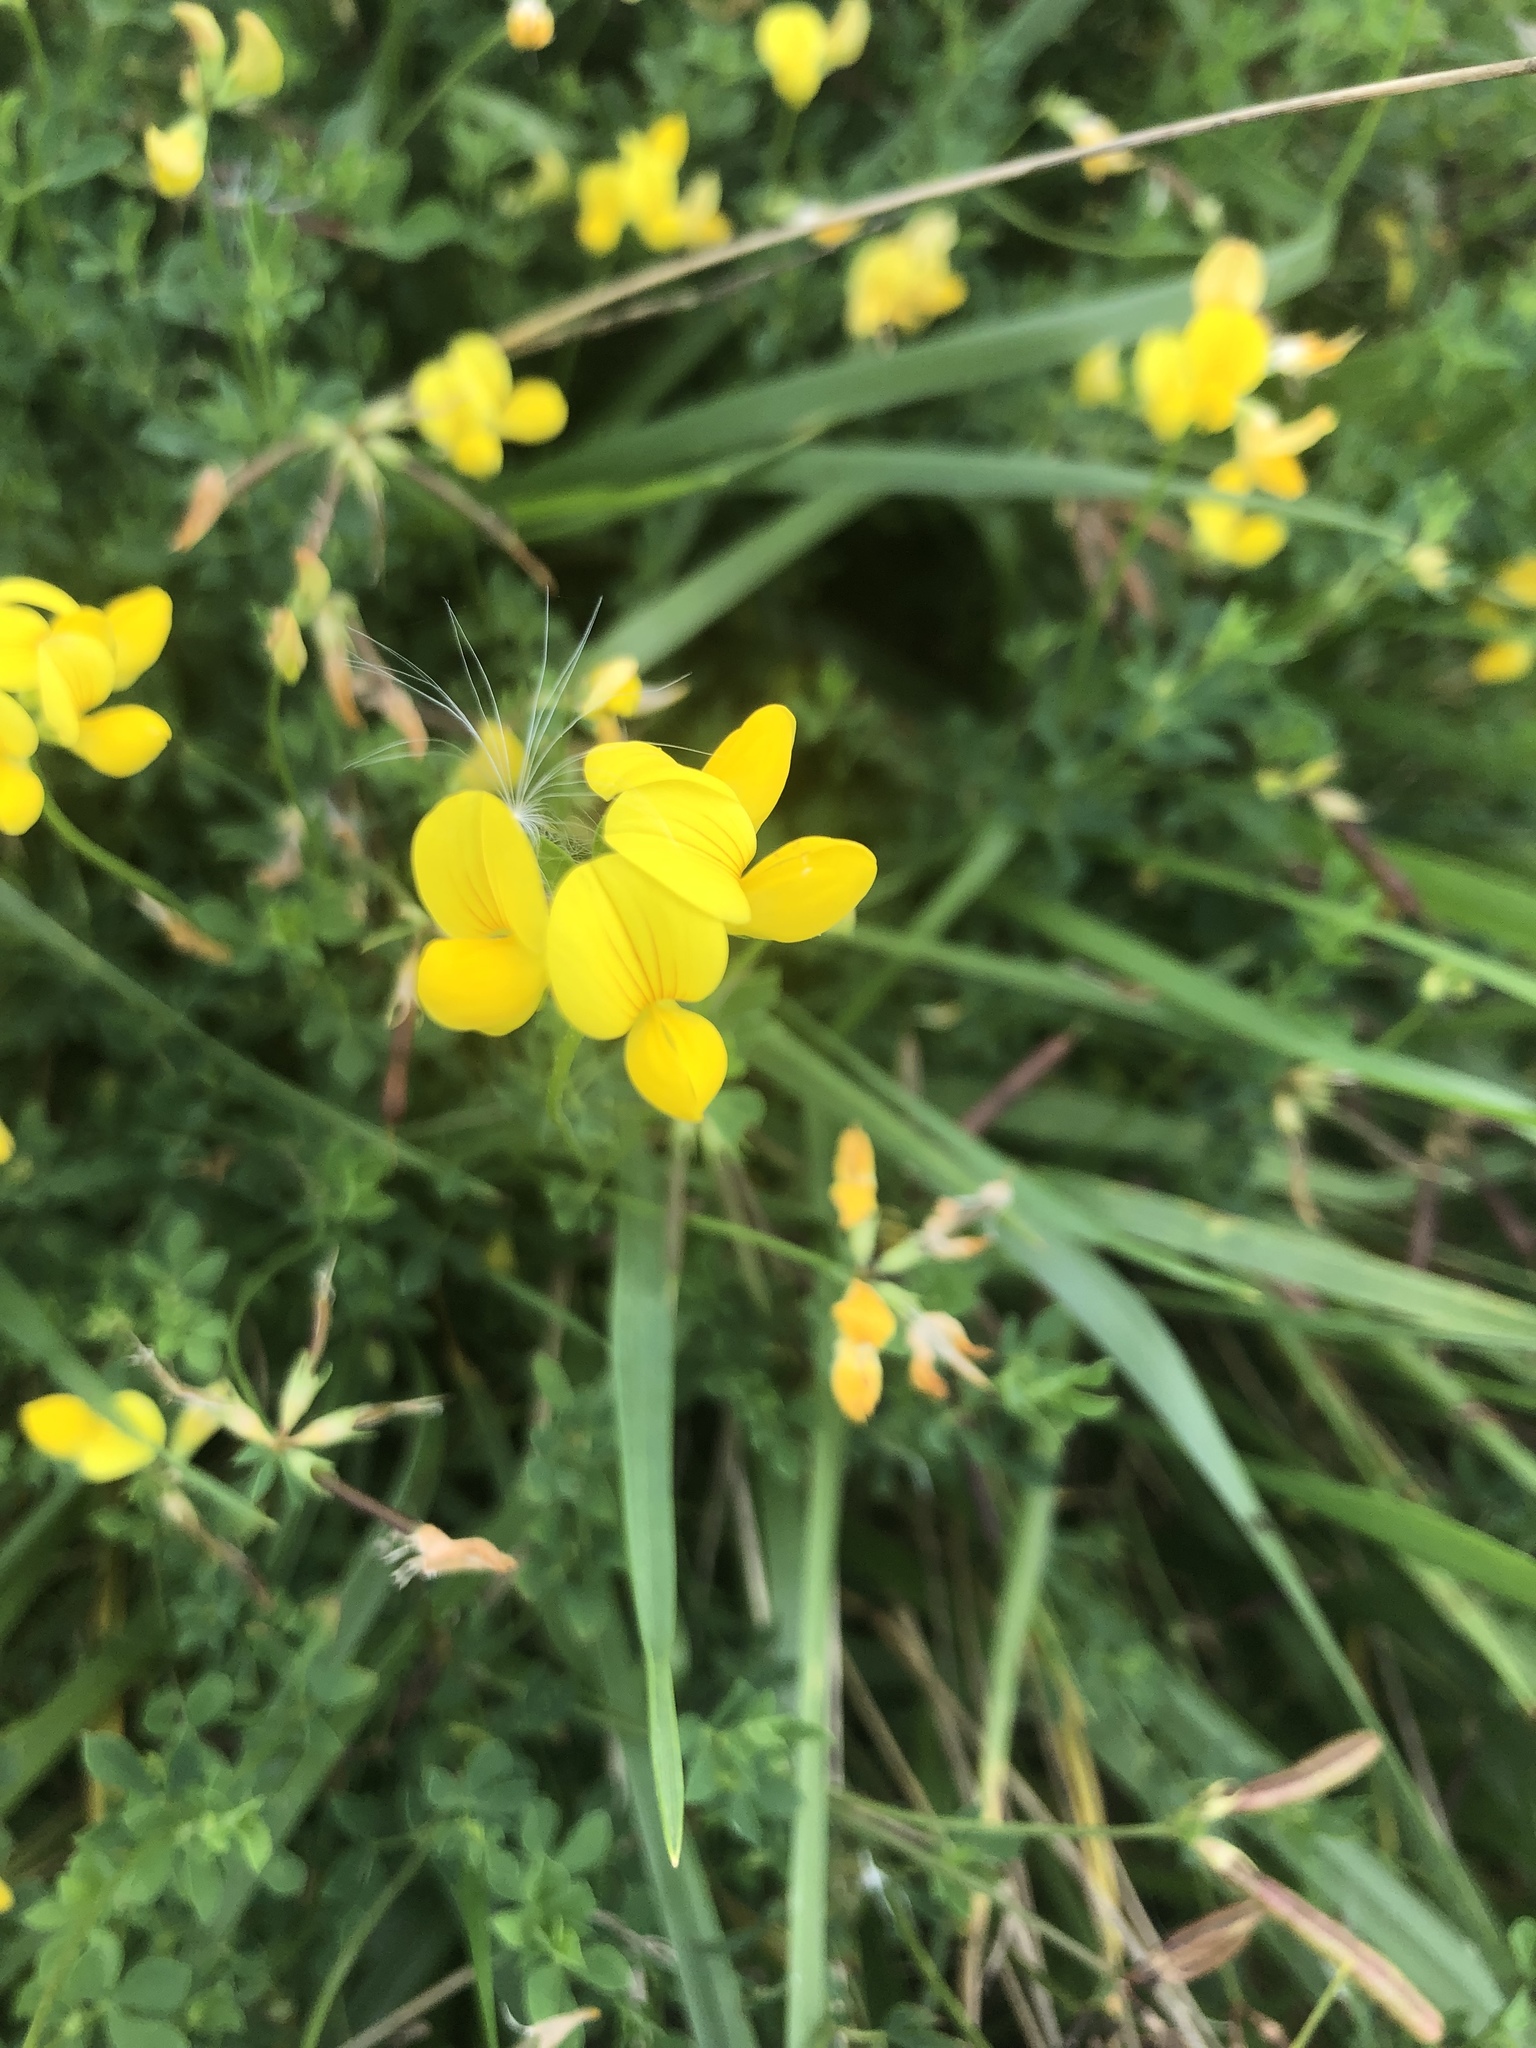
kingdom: Plantae
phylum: Tracheophyta
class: Magnoliopsida
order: Fabales
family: Fabaceae
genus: Lotus
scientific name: Lotus corniculatus
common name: Common bird's-foot-trefoil
